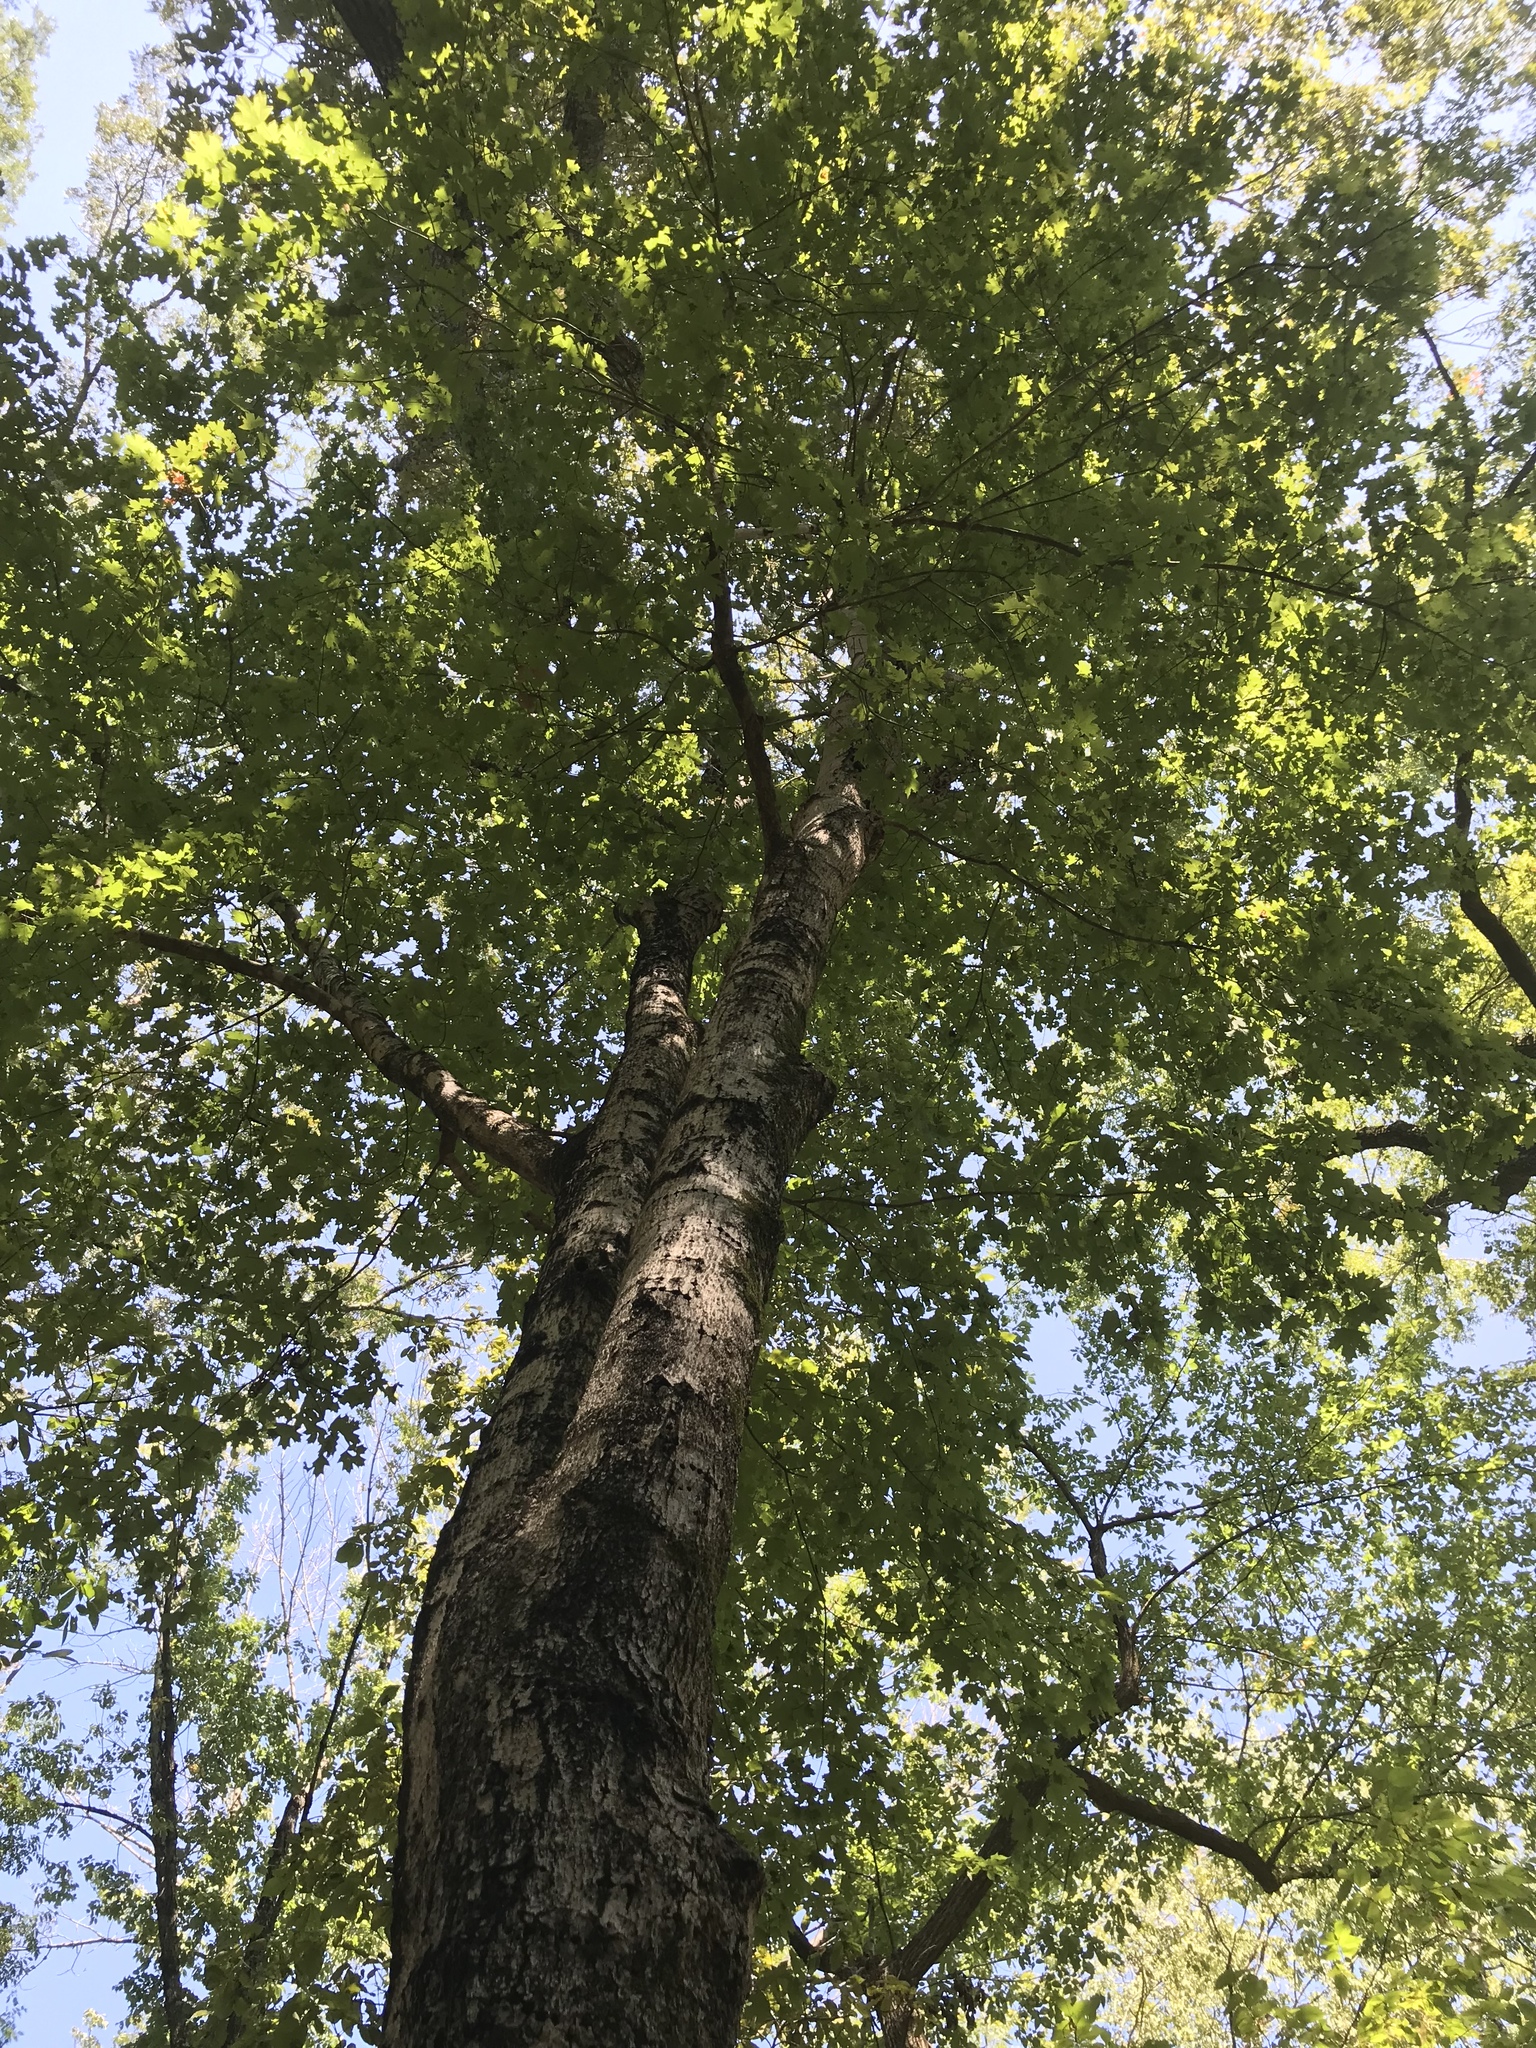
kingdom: Plantae
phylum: Tracheophyta
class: Magnoliopsida
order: Sapindales
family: Sapindaceae
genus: Acer
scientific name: Acer floridanum
